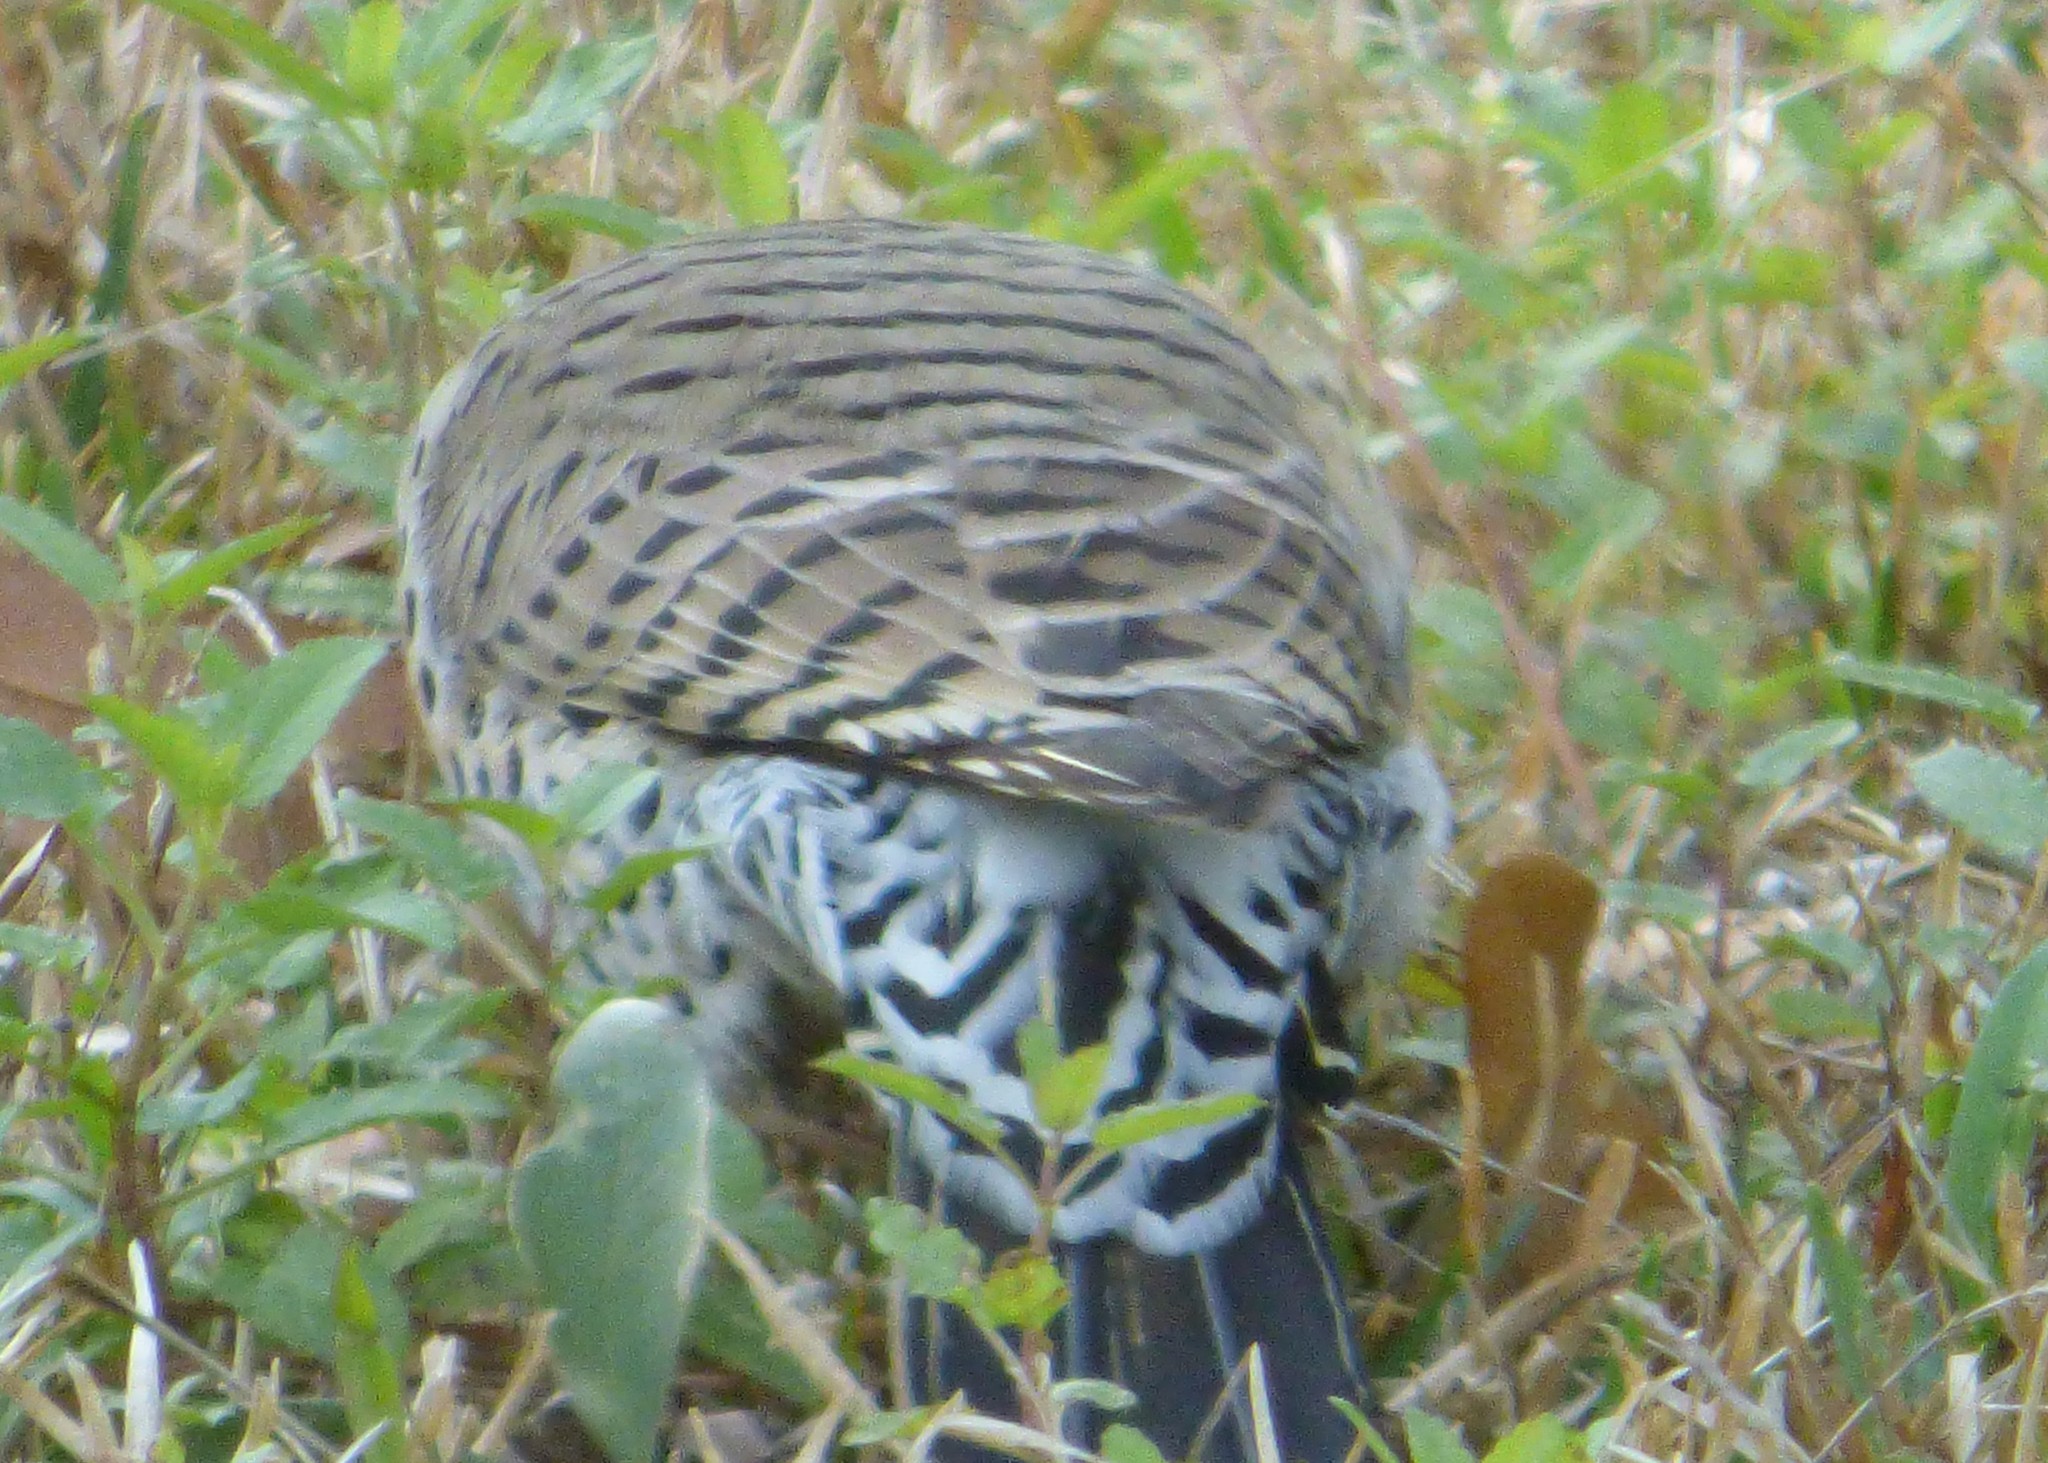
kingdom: Animalia
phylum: Chordata
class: Aves
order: Piciformes
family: Picidae
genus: Colaptes
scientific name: Colaptes auratus
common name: Northern flicker
